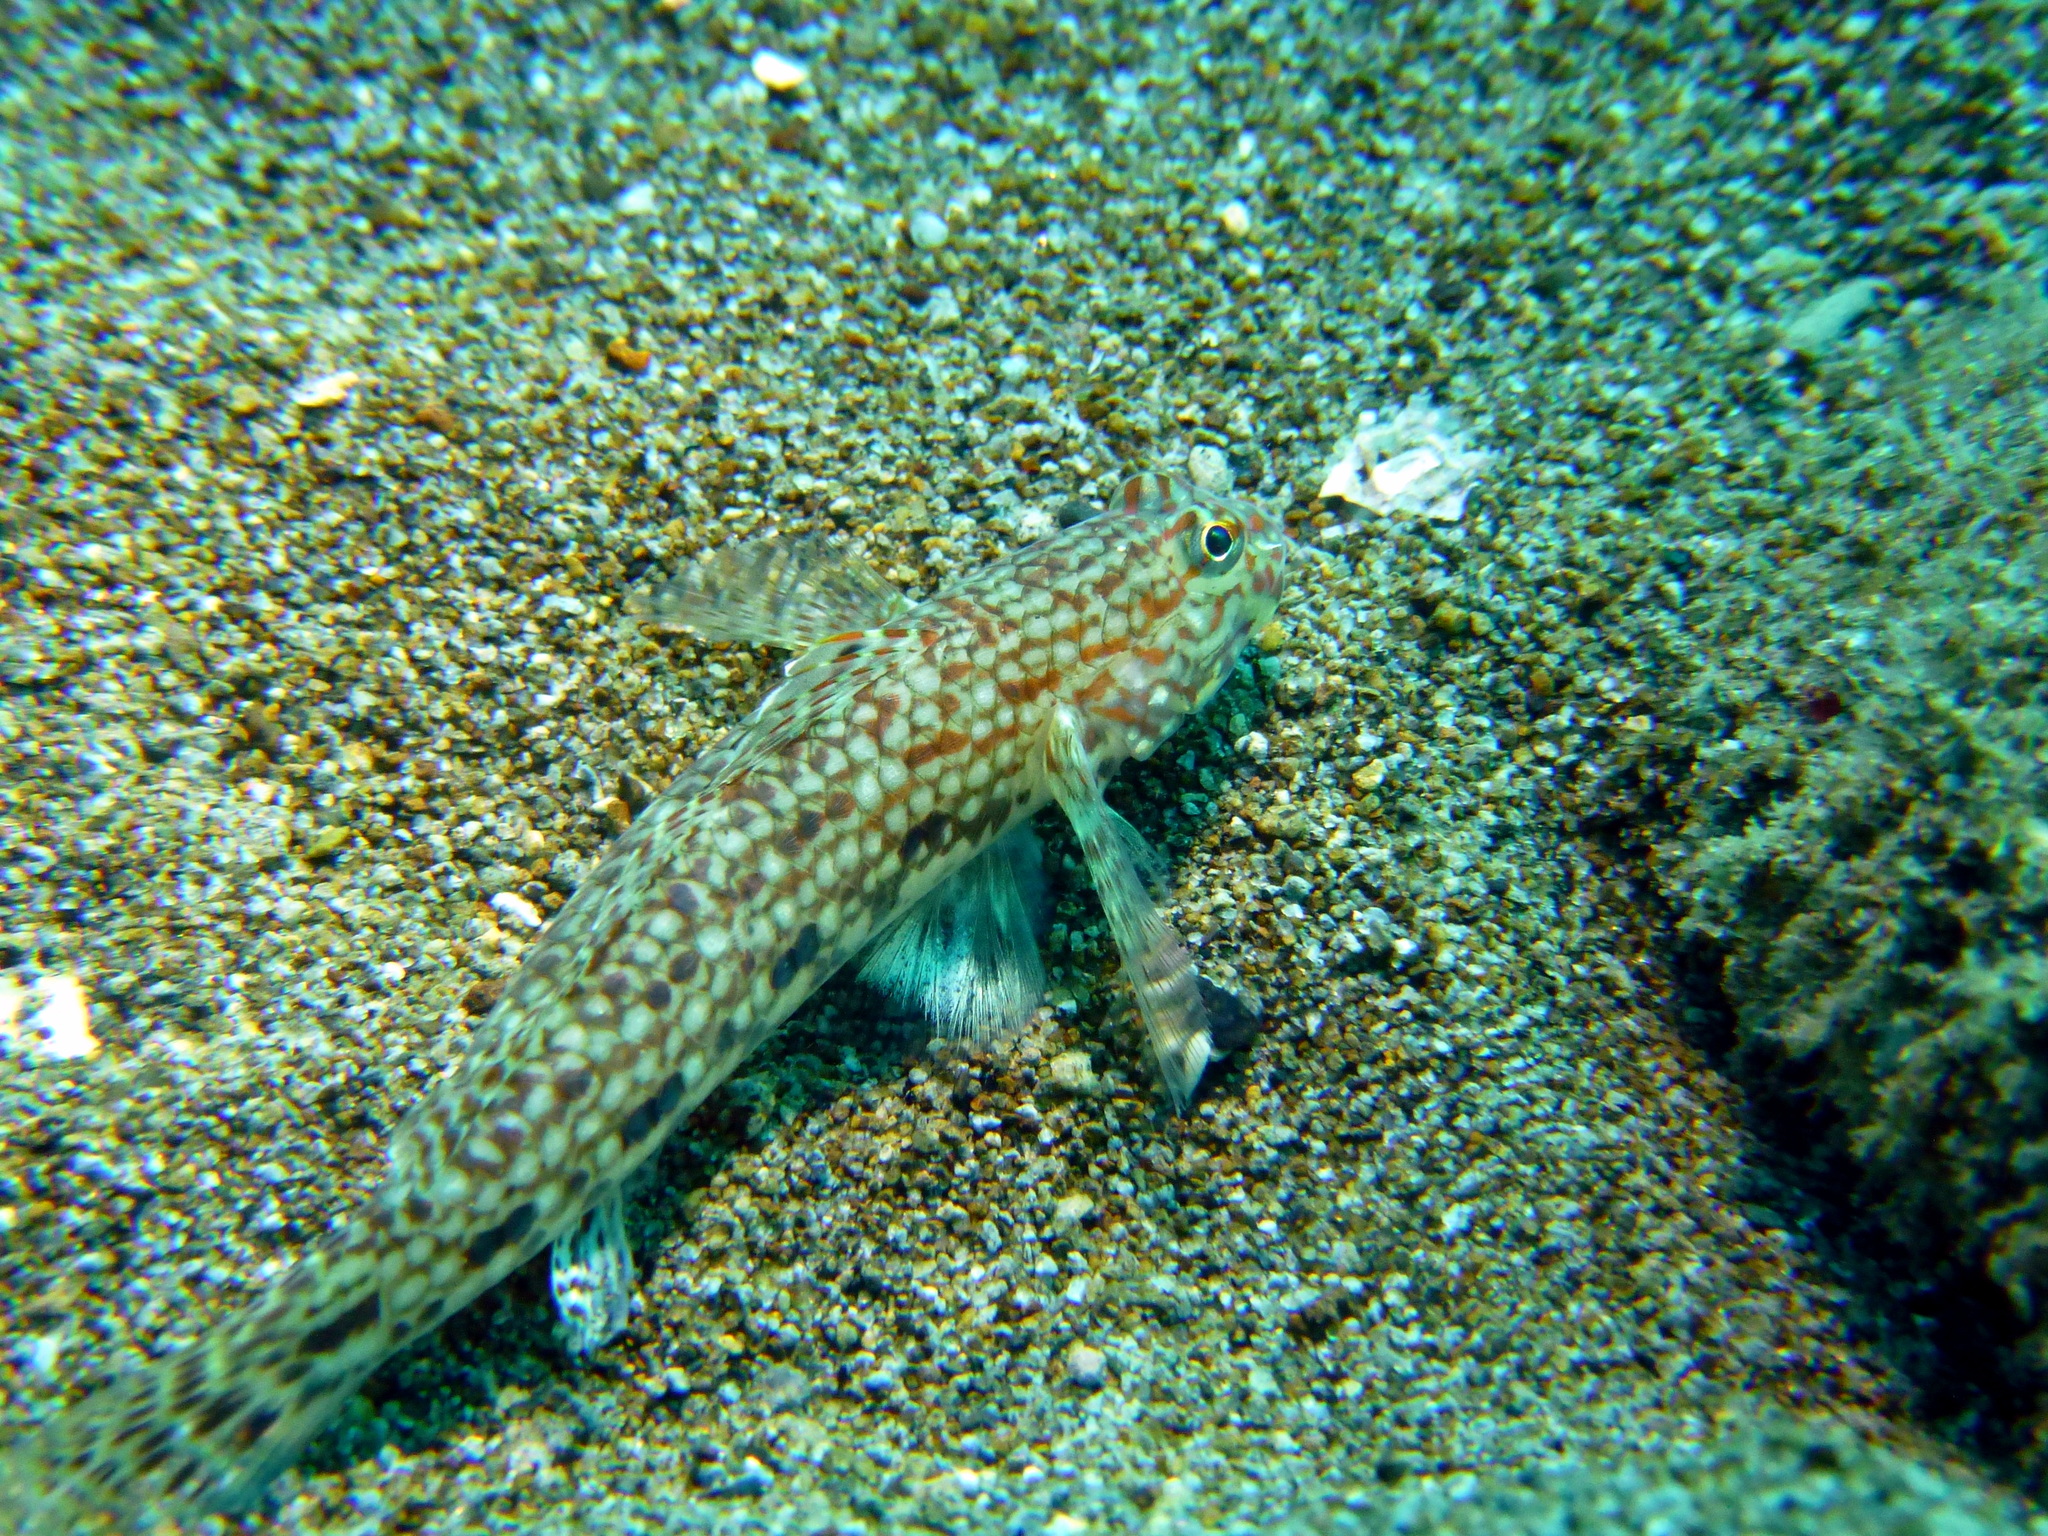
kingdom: Animalia
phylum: Chordata
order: Perciformes
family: Gobiidae
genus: Istigobius
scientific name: Istigobius decoratus
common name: Decorated goby
